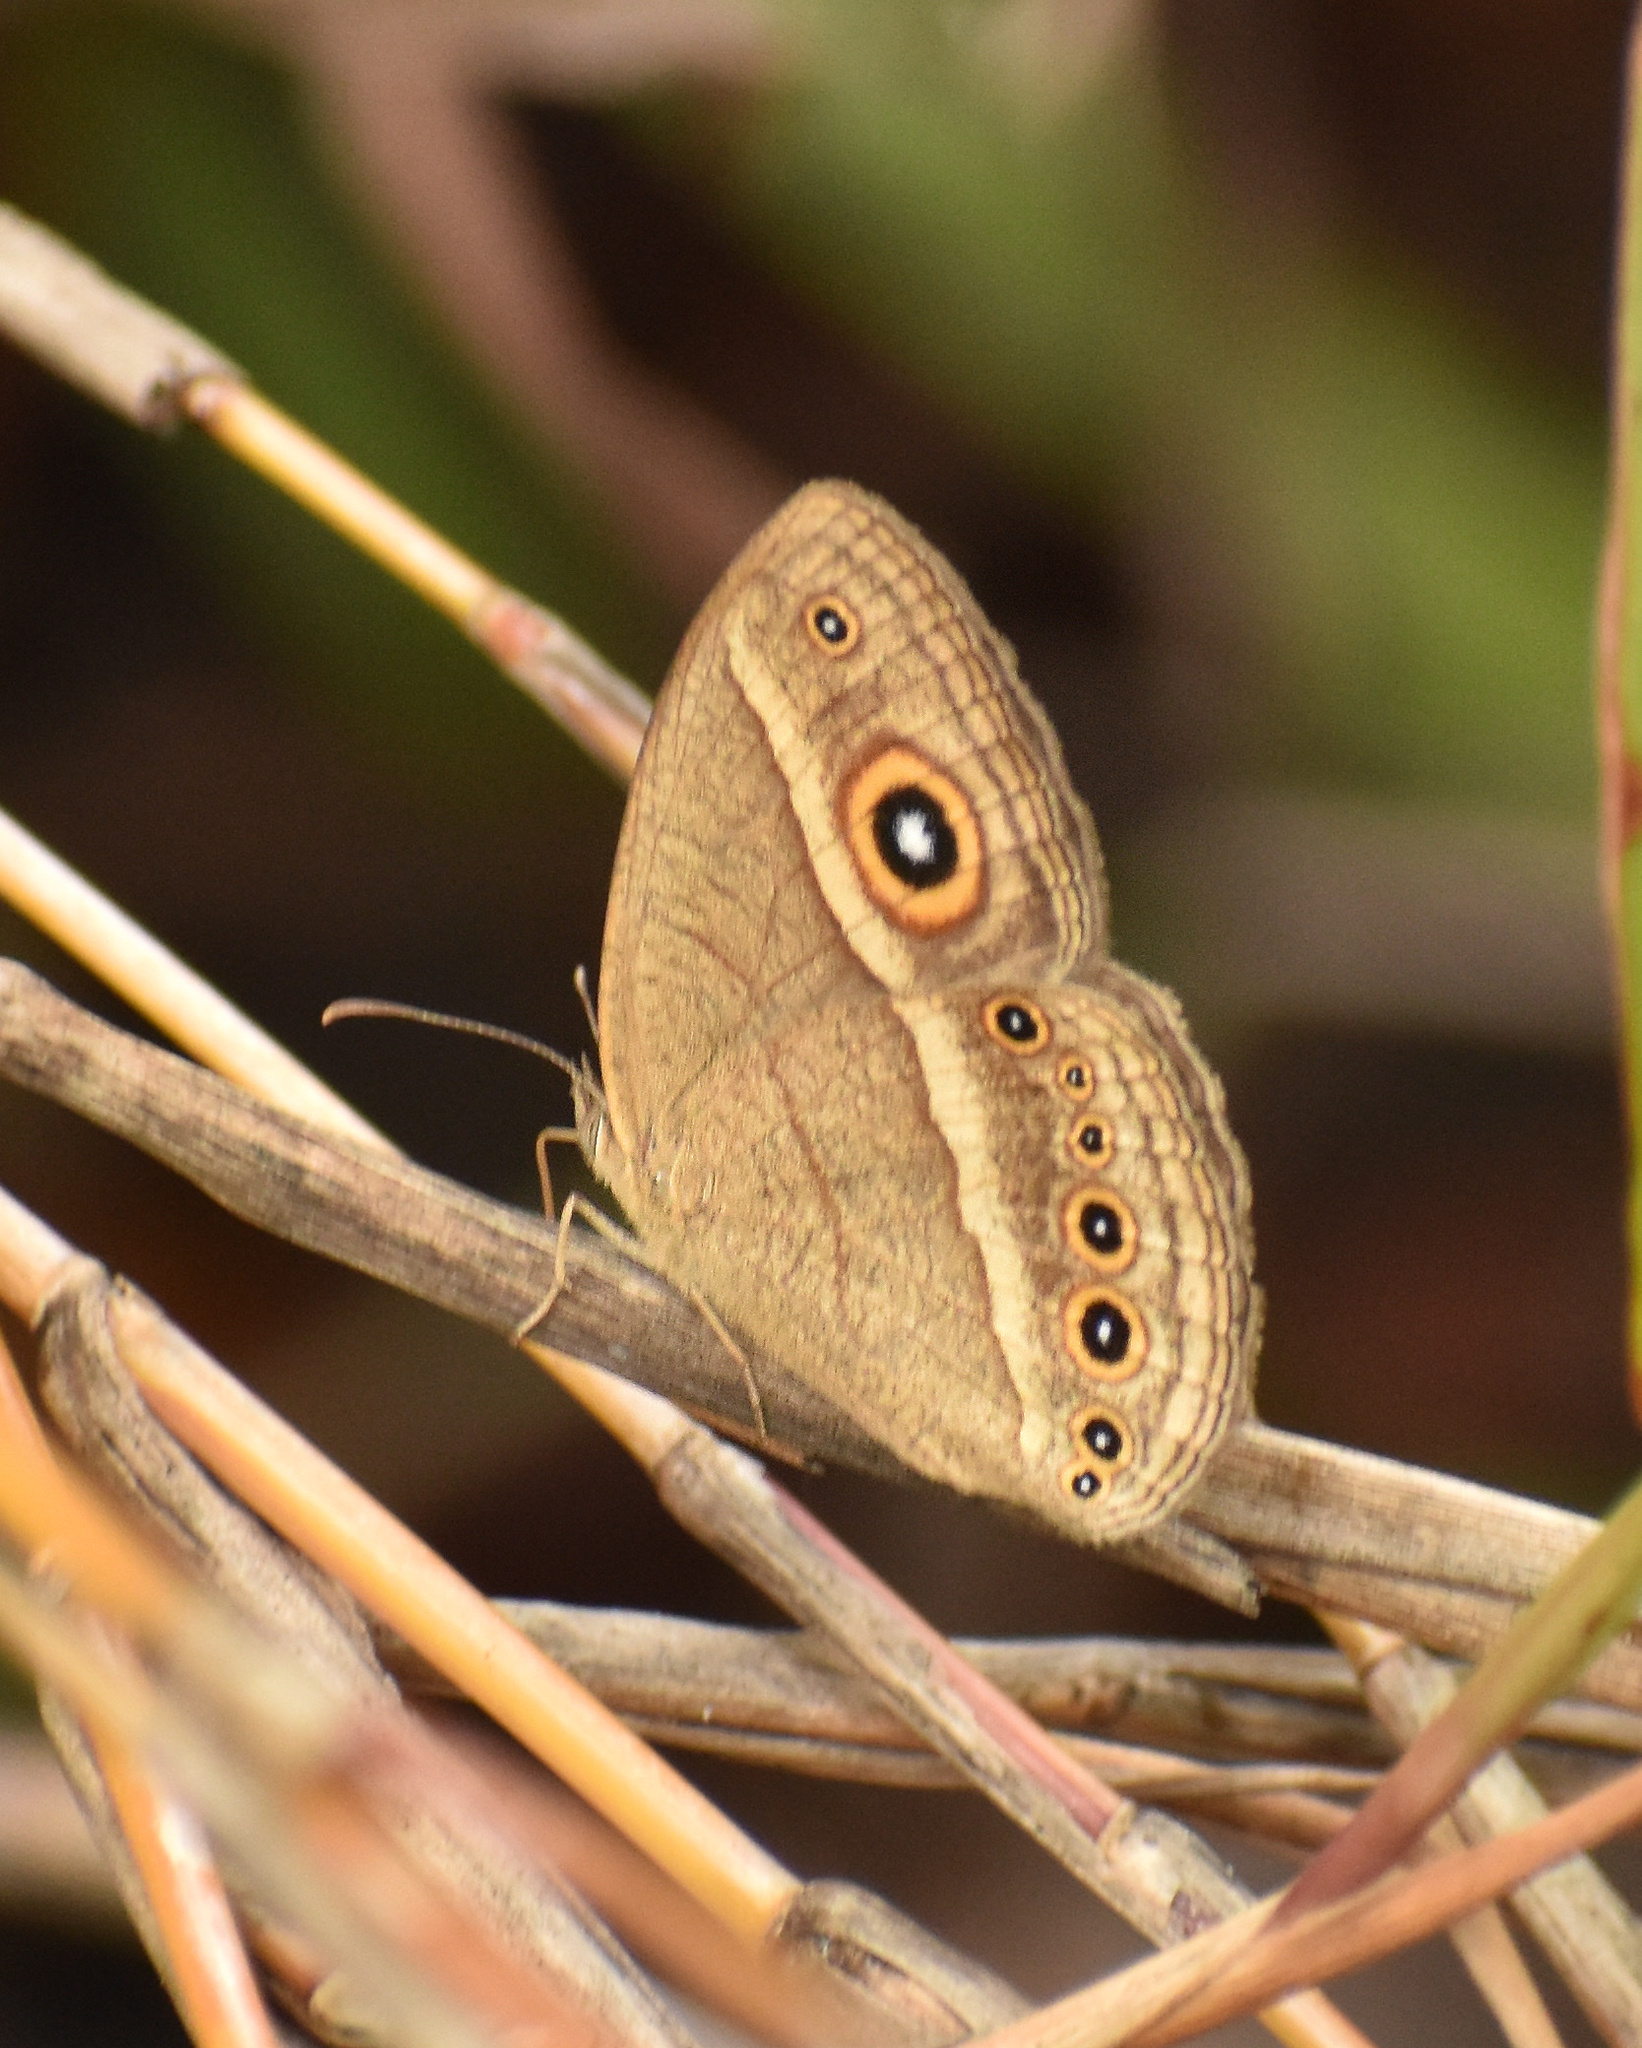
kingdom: Animalia
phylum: Arthropoda
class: Insecta
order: Lepidoptera
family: Nymphalidae
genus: Heteropsis
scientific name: Heteropsis perspicua
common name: Eyed bush brown
